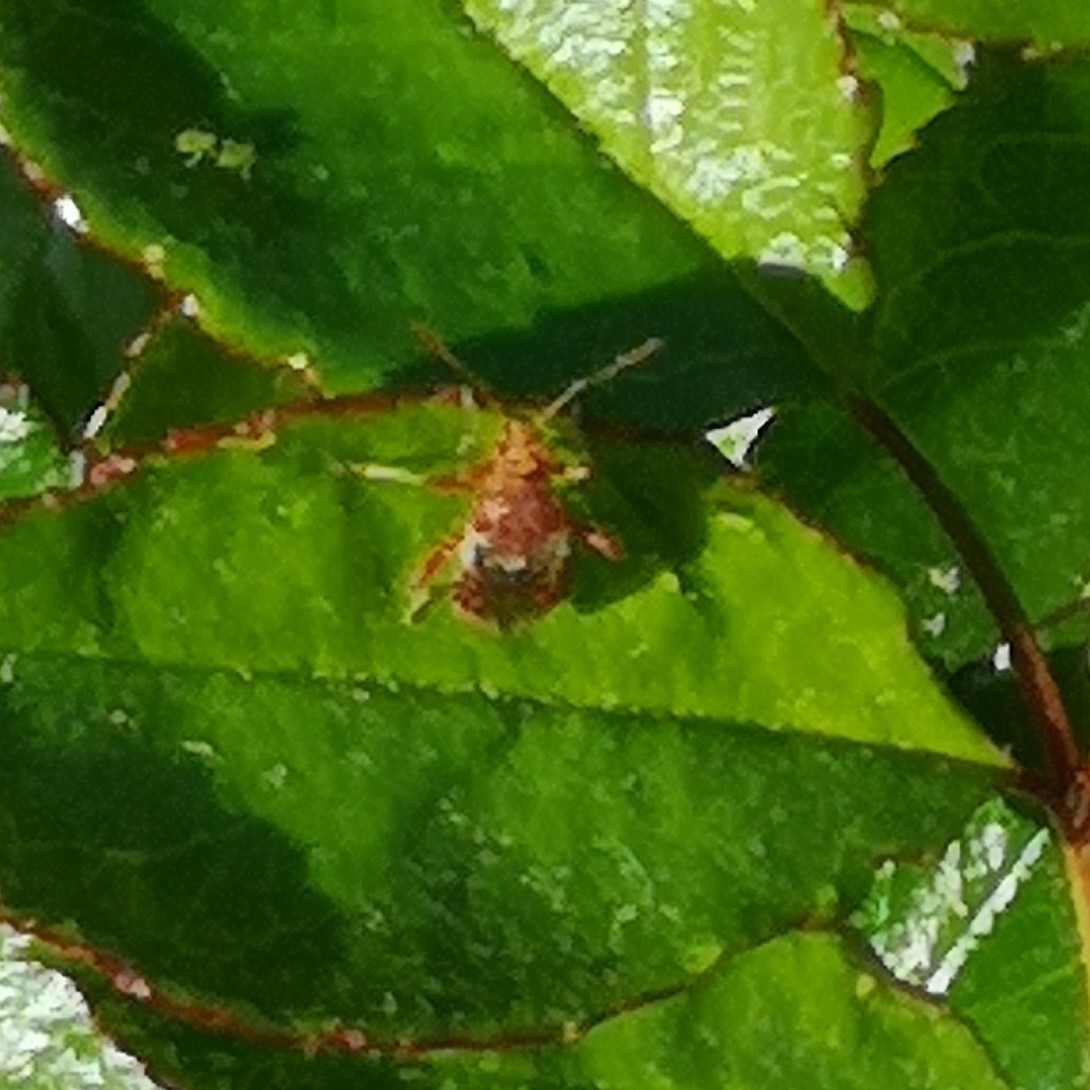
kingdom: Animalia
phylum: Arthropoda
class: Insecta
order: Hemiptera
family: Rhopalidae
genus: Rhopalus
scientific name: Rhopalus subrufus
